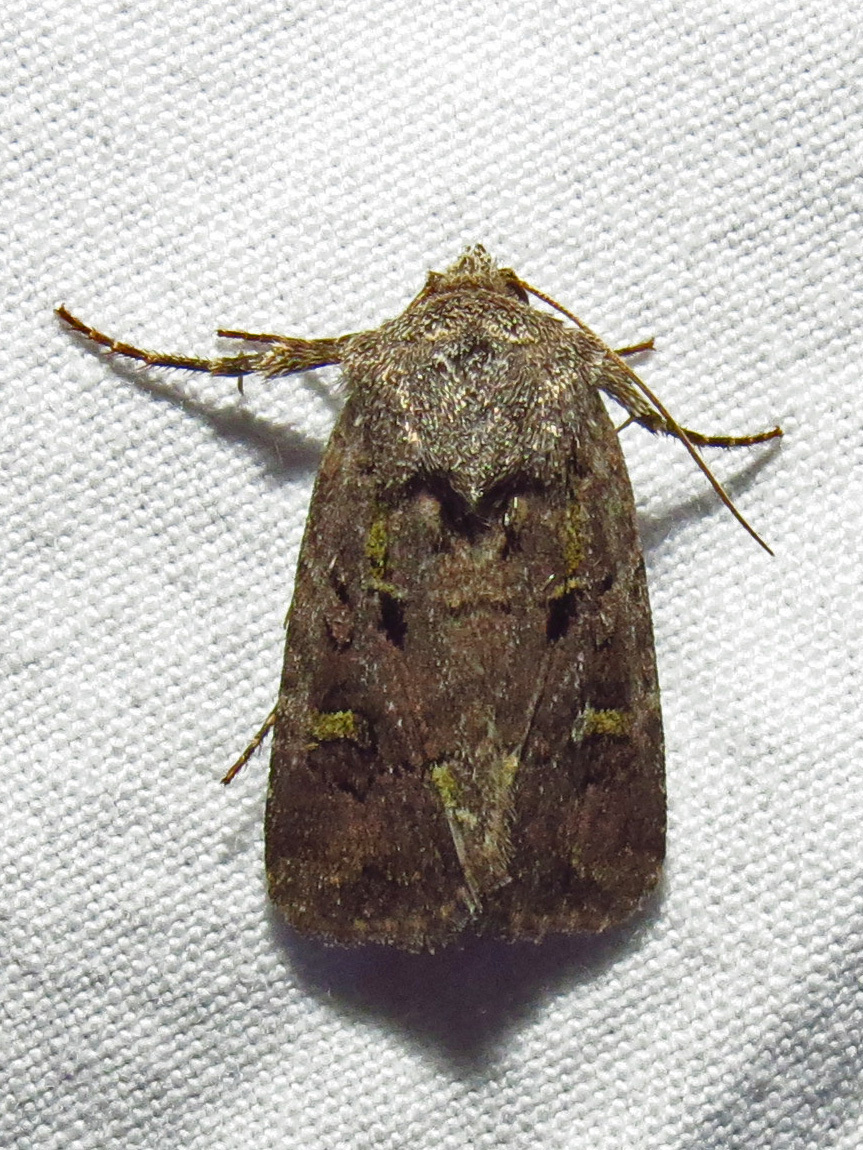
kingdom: Animalia
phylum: Arthropoda
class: Insecta
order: Lepidoptera
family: Noctuidae
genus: Lacinipolia
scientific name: Lacinipolia renigera
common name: Kidney-spotted minor
